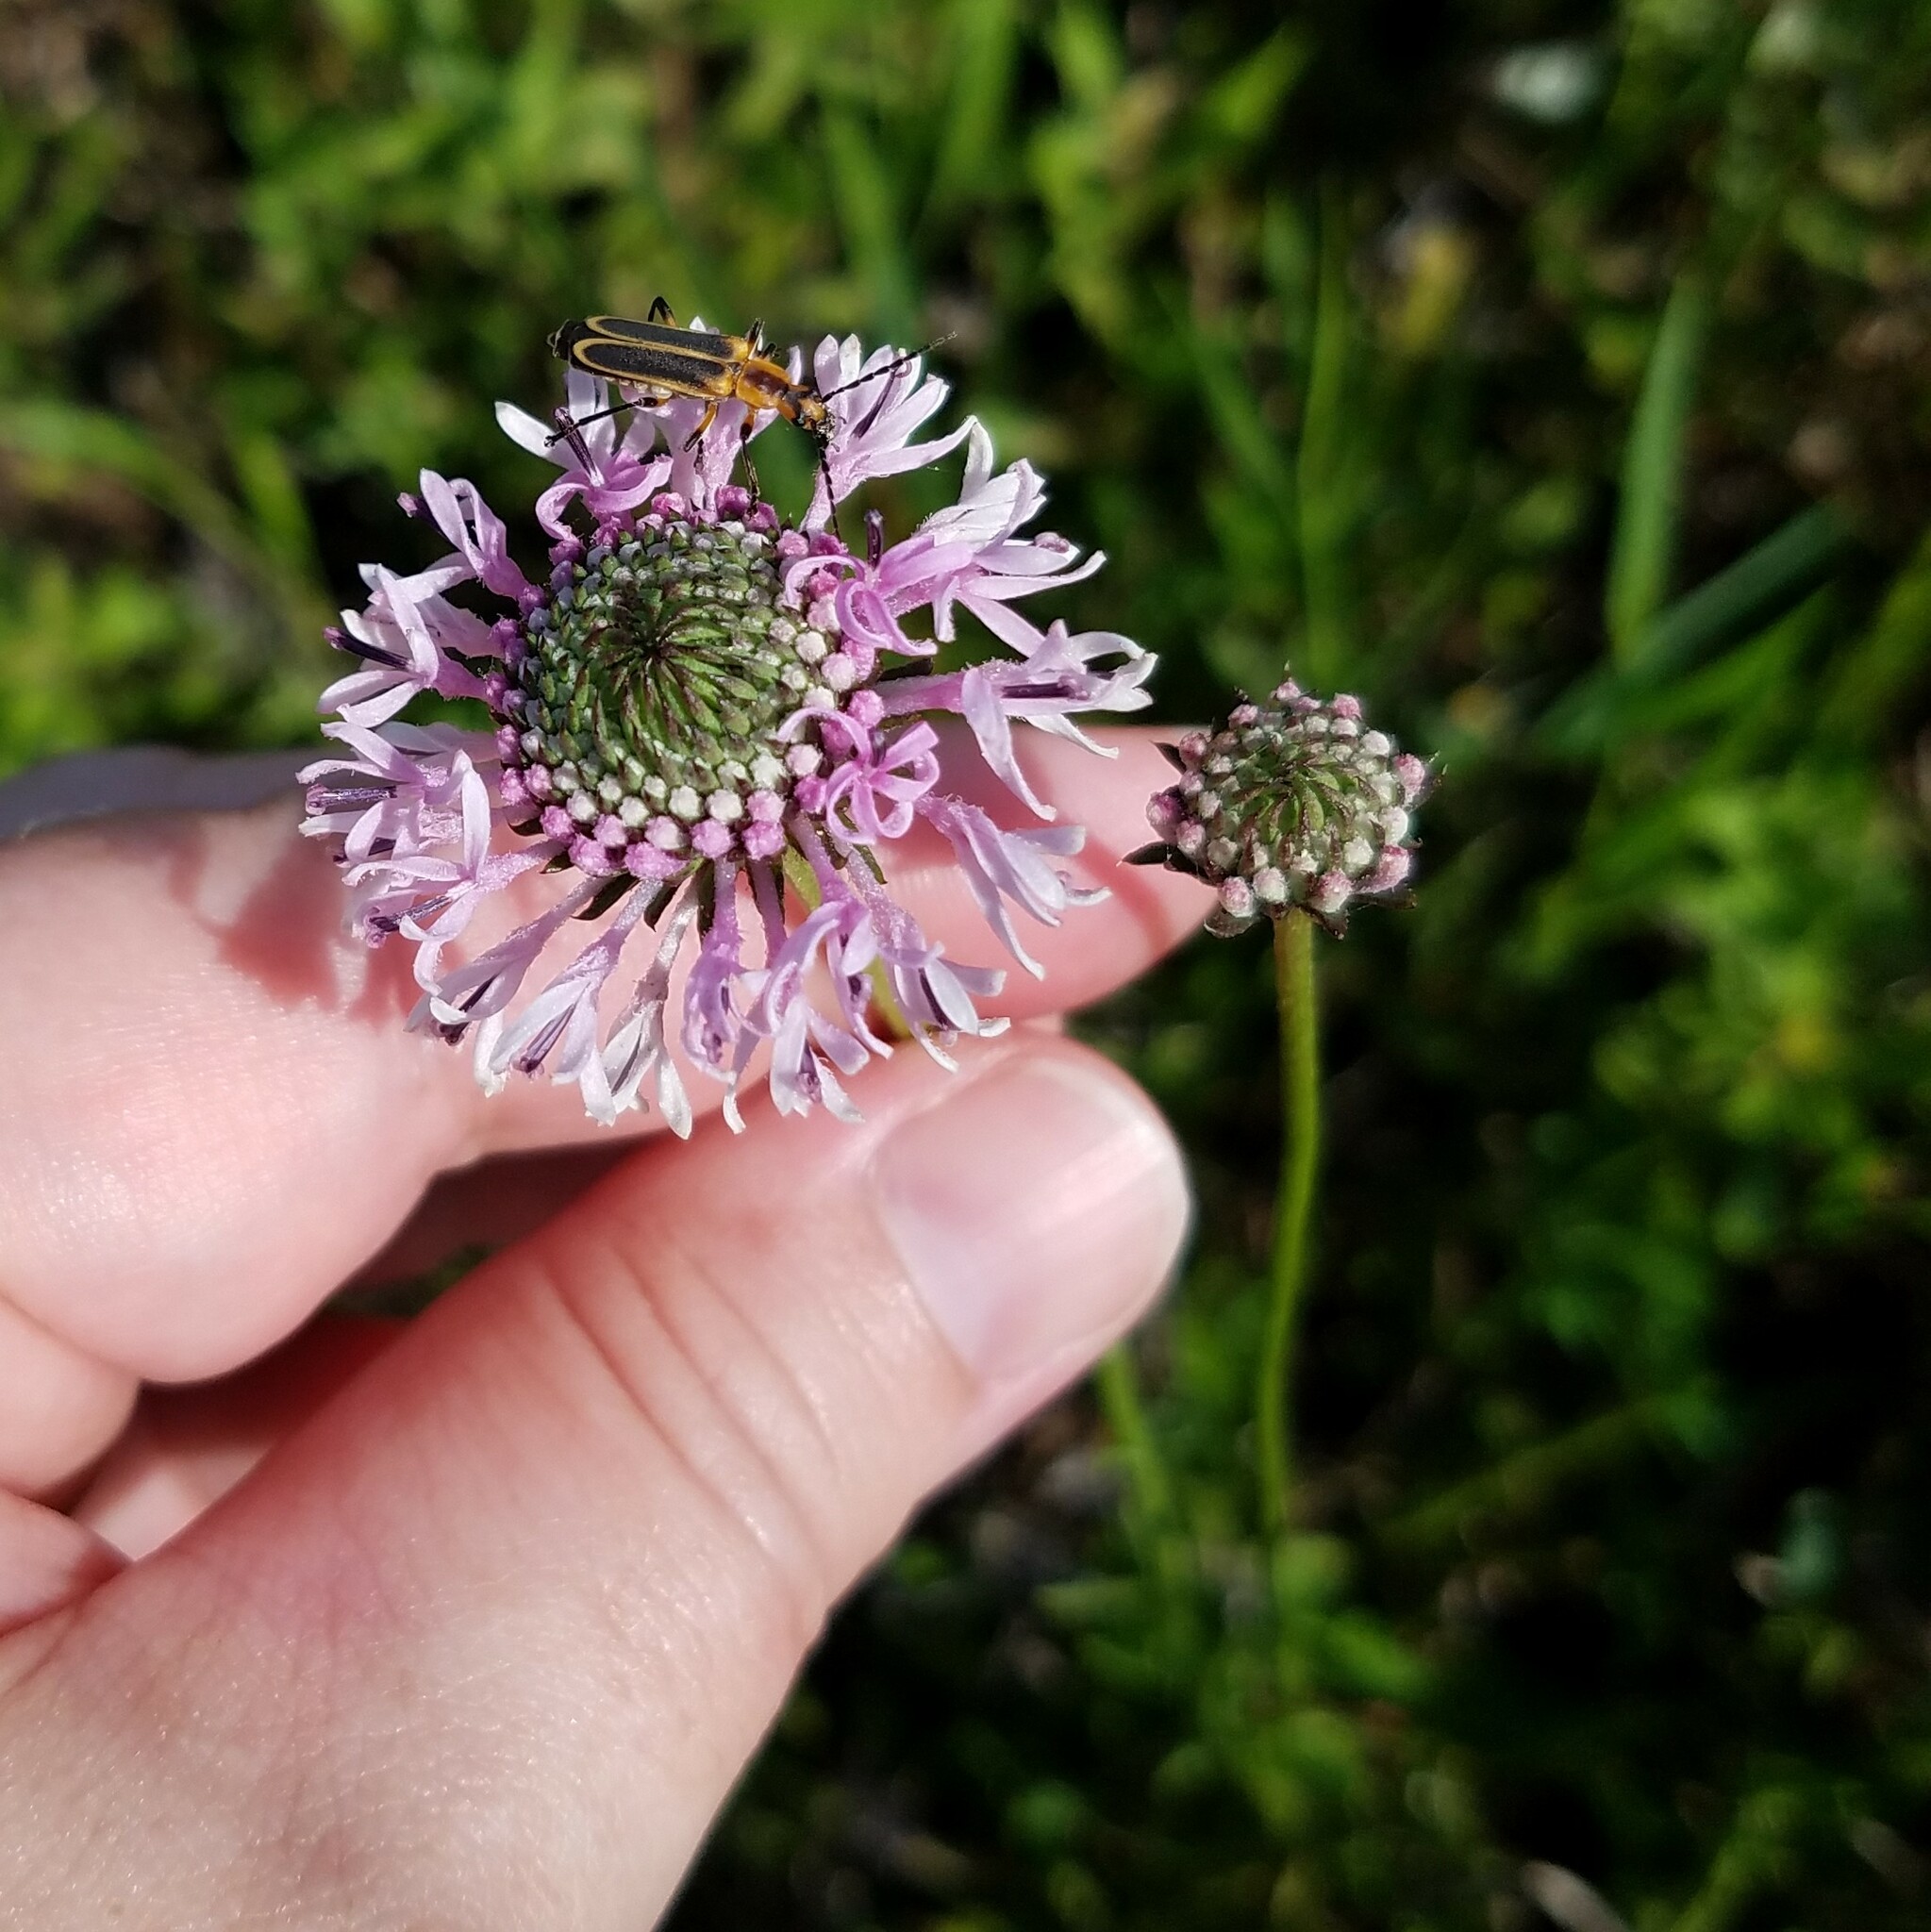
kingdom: Plantae
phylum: Tracheophyta
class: Magnoliopsida
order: Asterales
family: Asteraceae
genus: Marshallia
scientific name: Marshallia graminifolia
